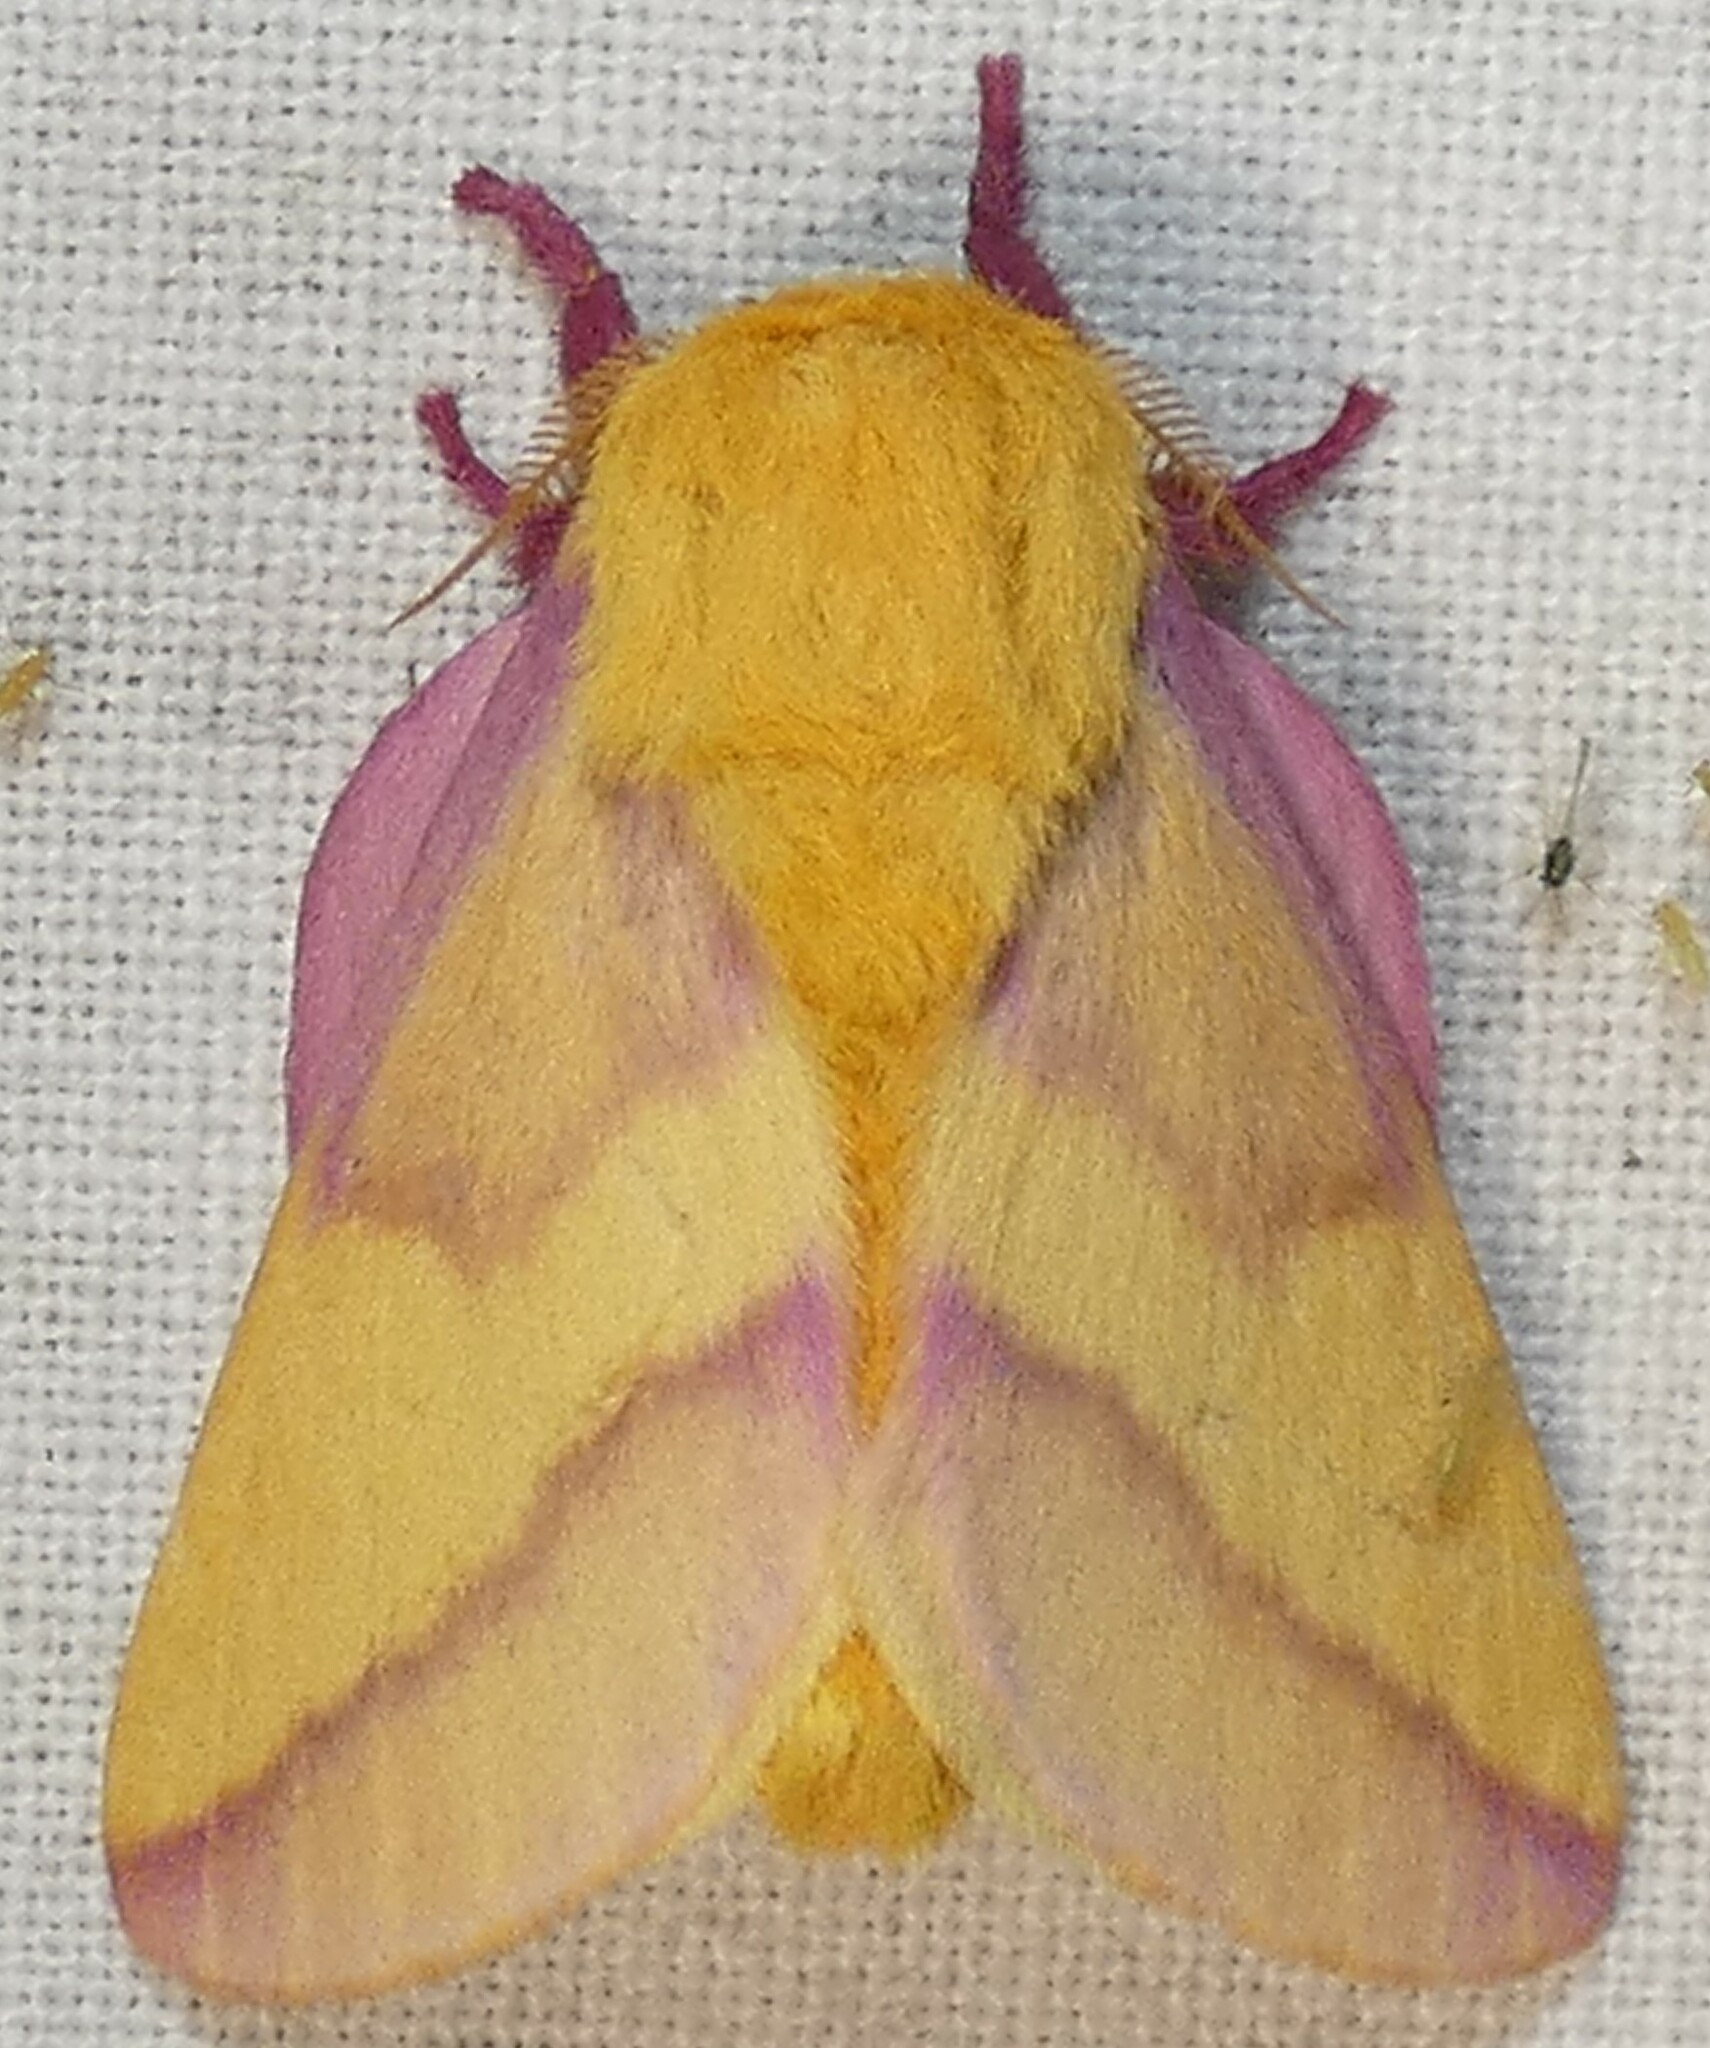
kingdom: Animalia
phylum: Arthropoda
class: Insecta
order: Lepidoptera
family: Saturniidae
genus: Dryocampa
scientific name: Dryocampa rubicunda
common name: Rosy maple moth
